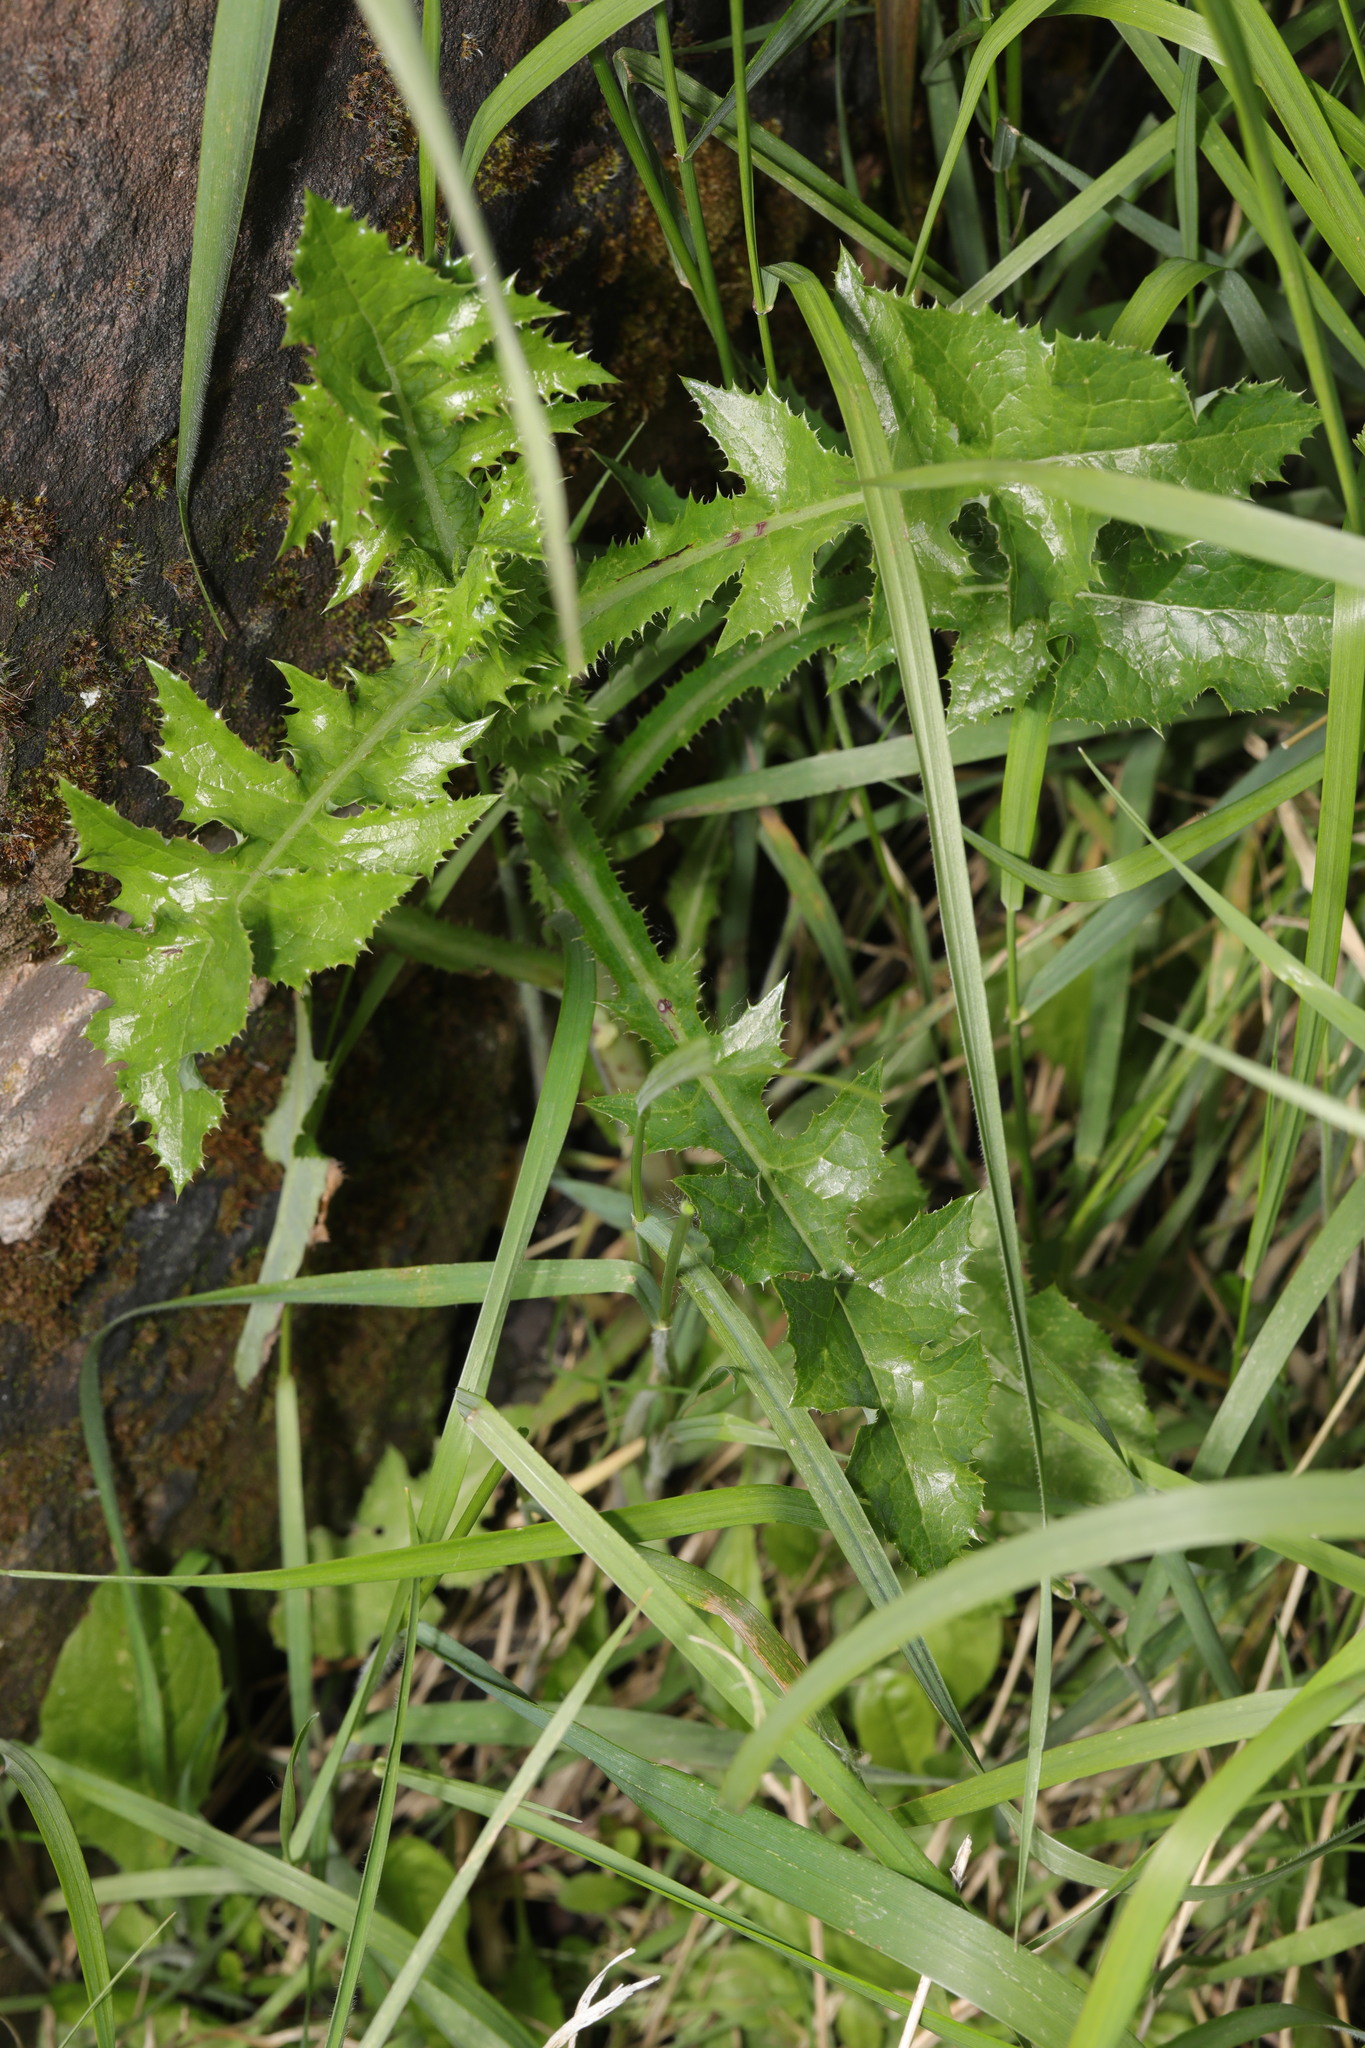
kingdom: Plantae
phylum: Tracheophyta
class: Magnoliopsida
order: Asterales
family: Asteraceae
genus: Sonchus
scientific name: Sonchus asper
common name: Prickly sow-thistle
